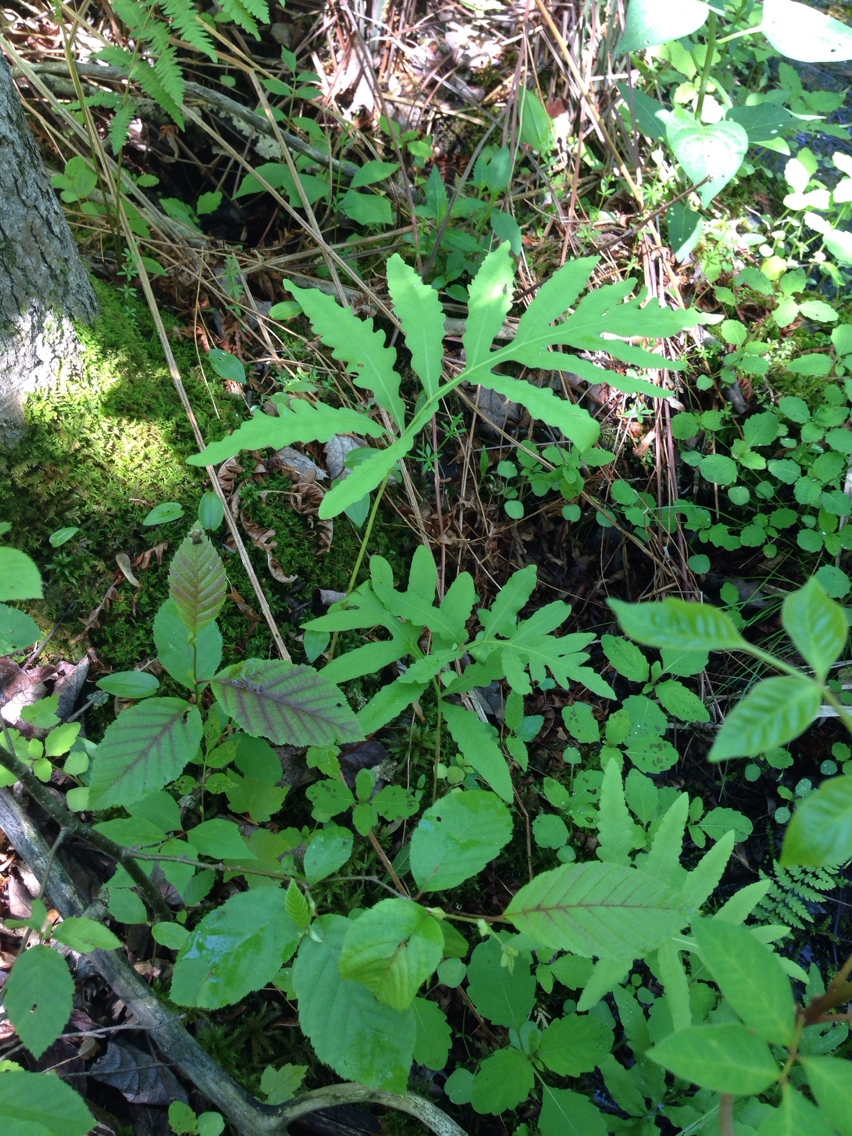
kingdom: Plantae
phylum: Tracheophyta
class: Polypodiopsida
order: Polypodiales
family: Onocleaceae
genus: Onoclea
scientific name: Onoclea sensibilis
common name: Sensitive fern
